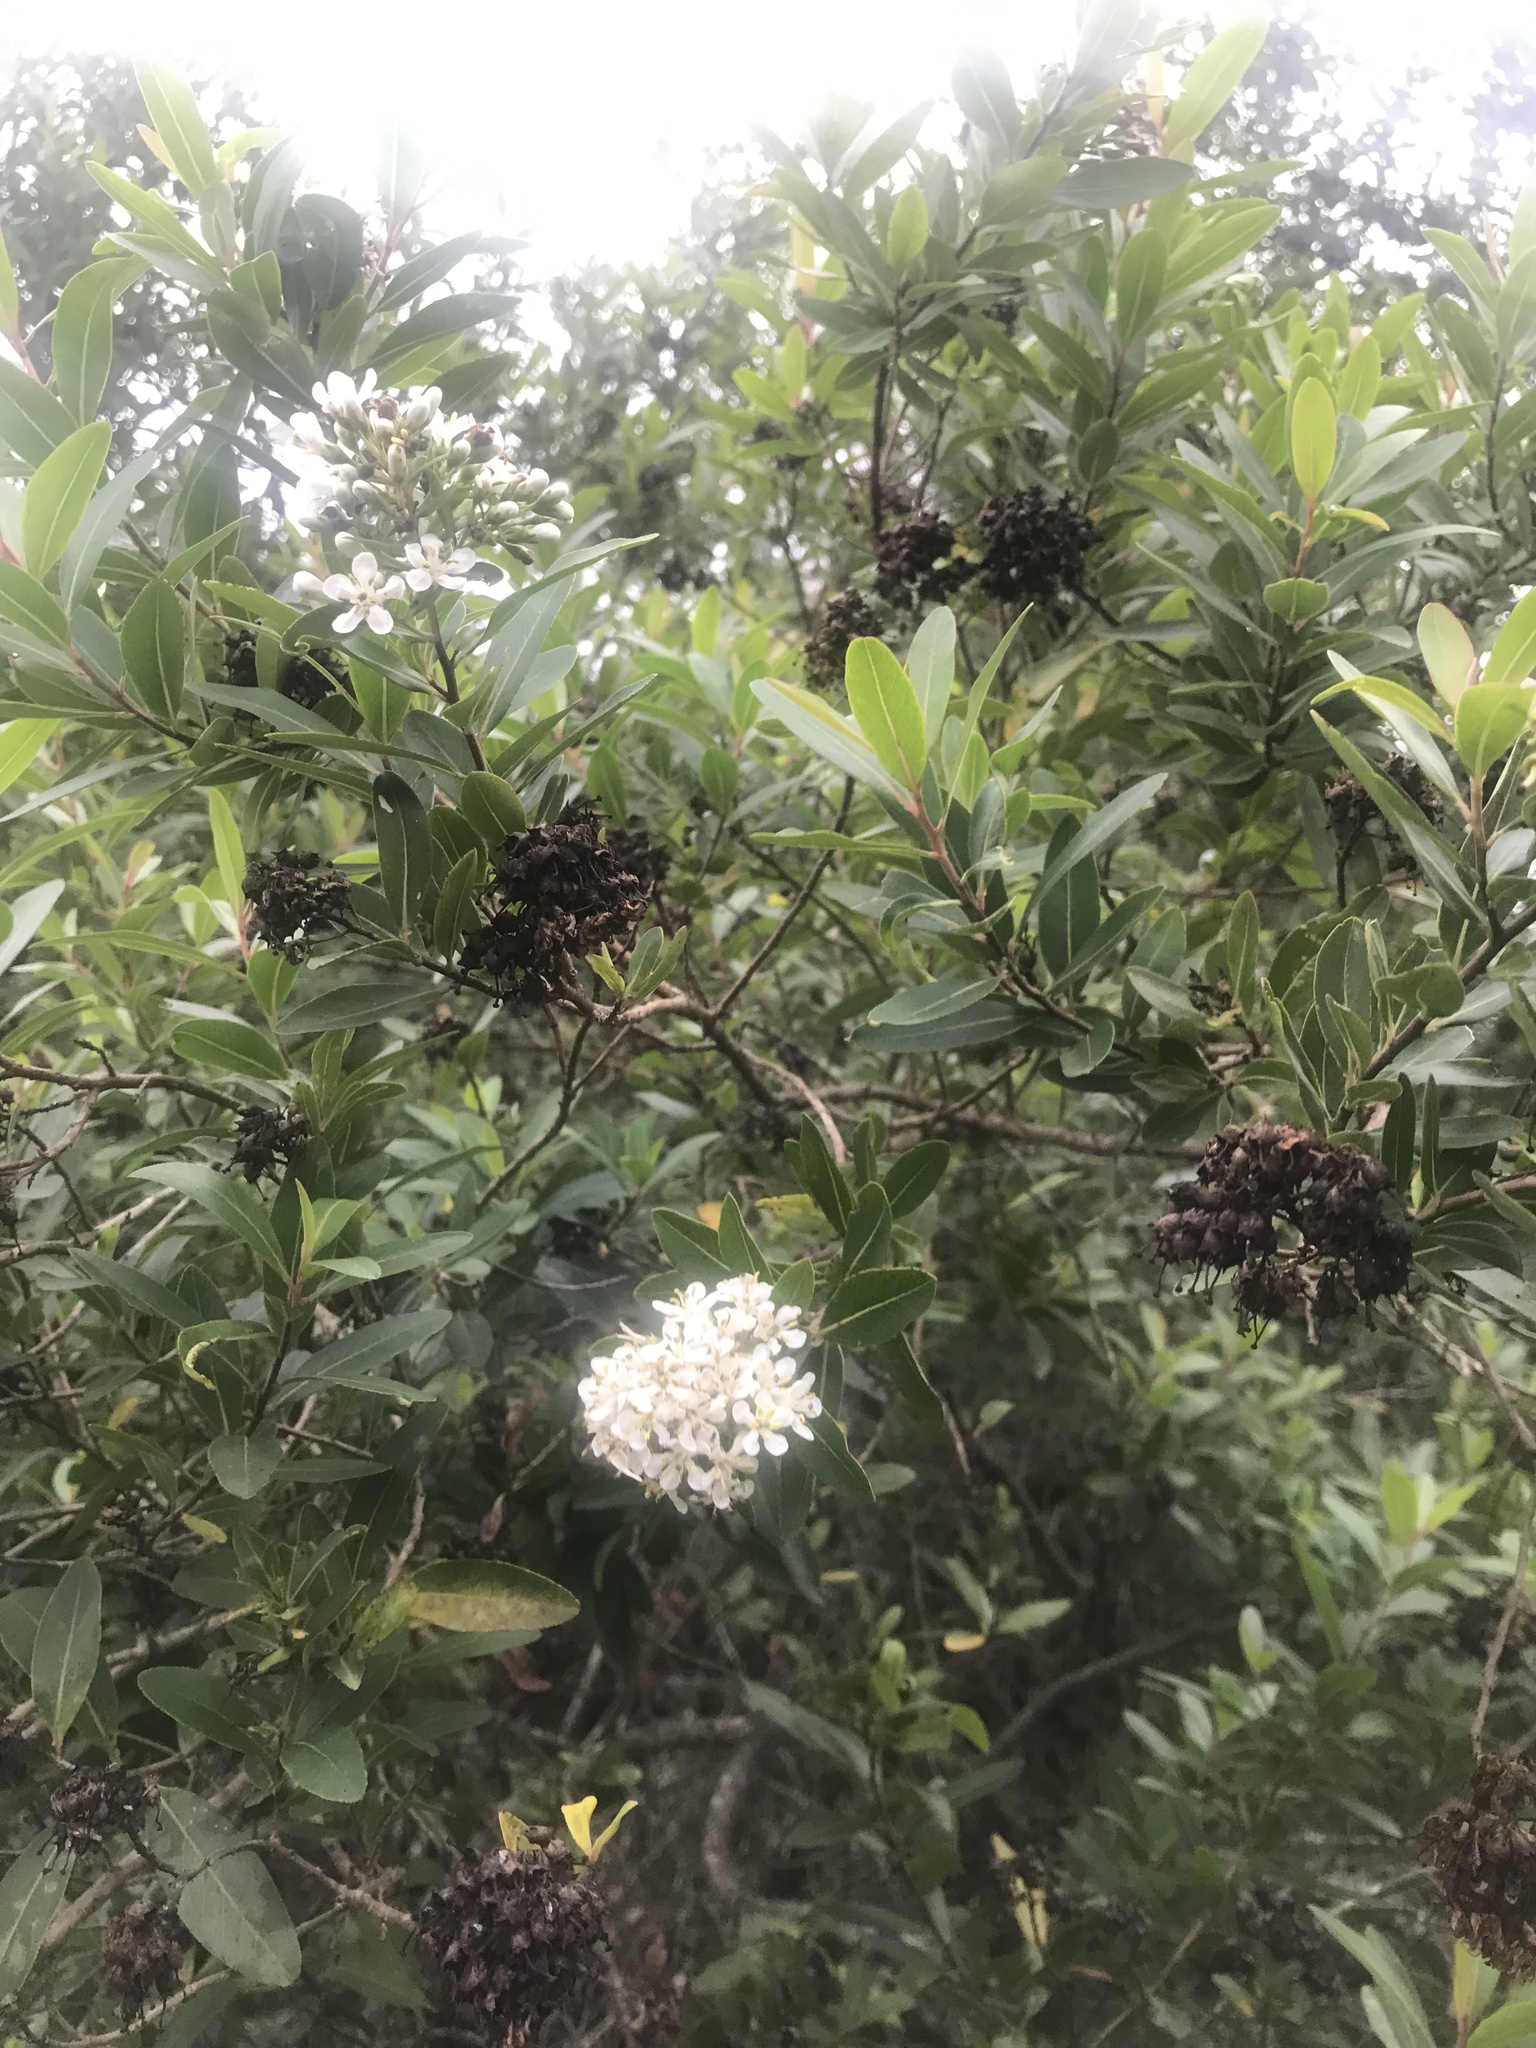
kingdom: Plantae
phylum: Tracheophyta
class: Magnoliopsida
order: Escalloniales
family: Escalloniaceae
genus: Escallonia
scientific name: Escallonia bifida
